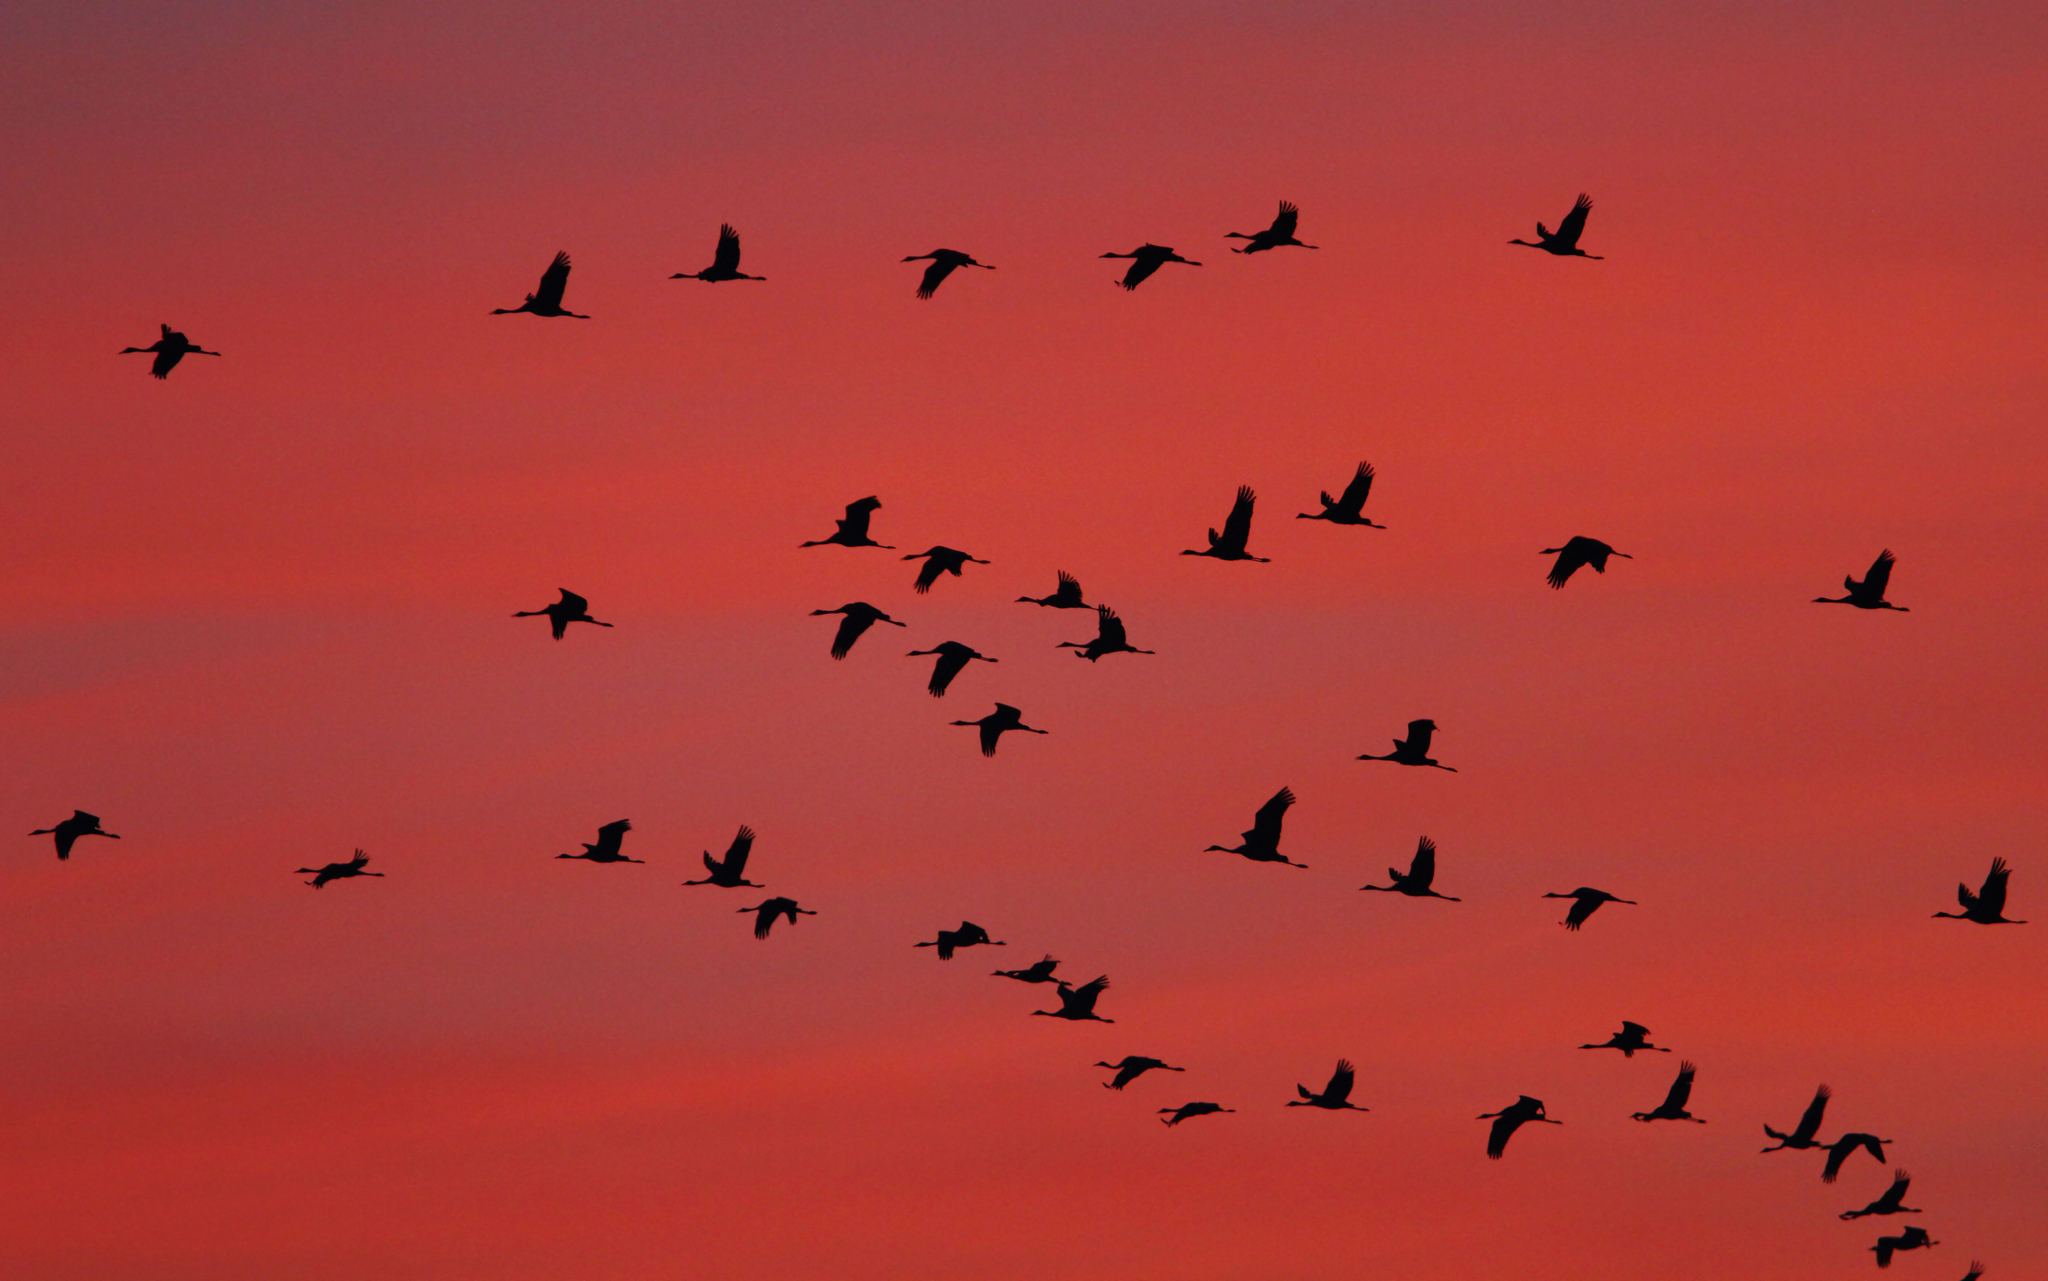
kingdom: Animalia
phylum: Chordata
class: Aves
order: Gruiformes
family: Gruidae
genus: Grus
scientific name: Grus grus
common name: Common crane
